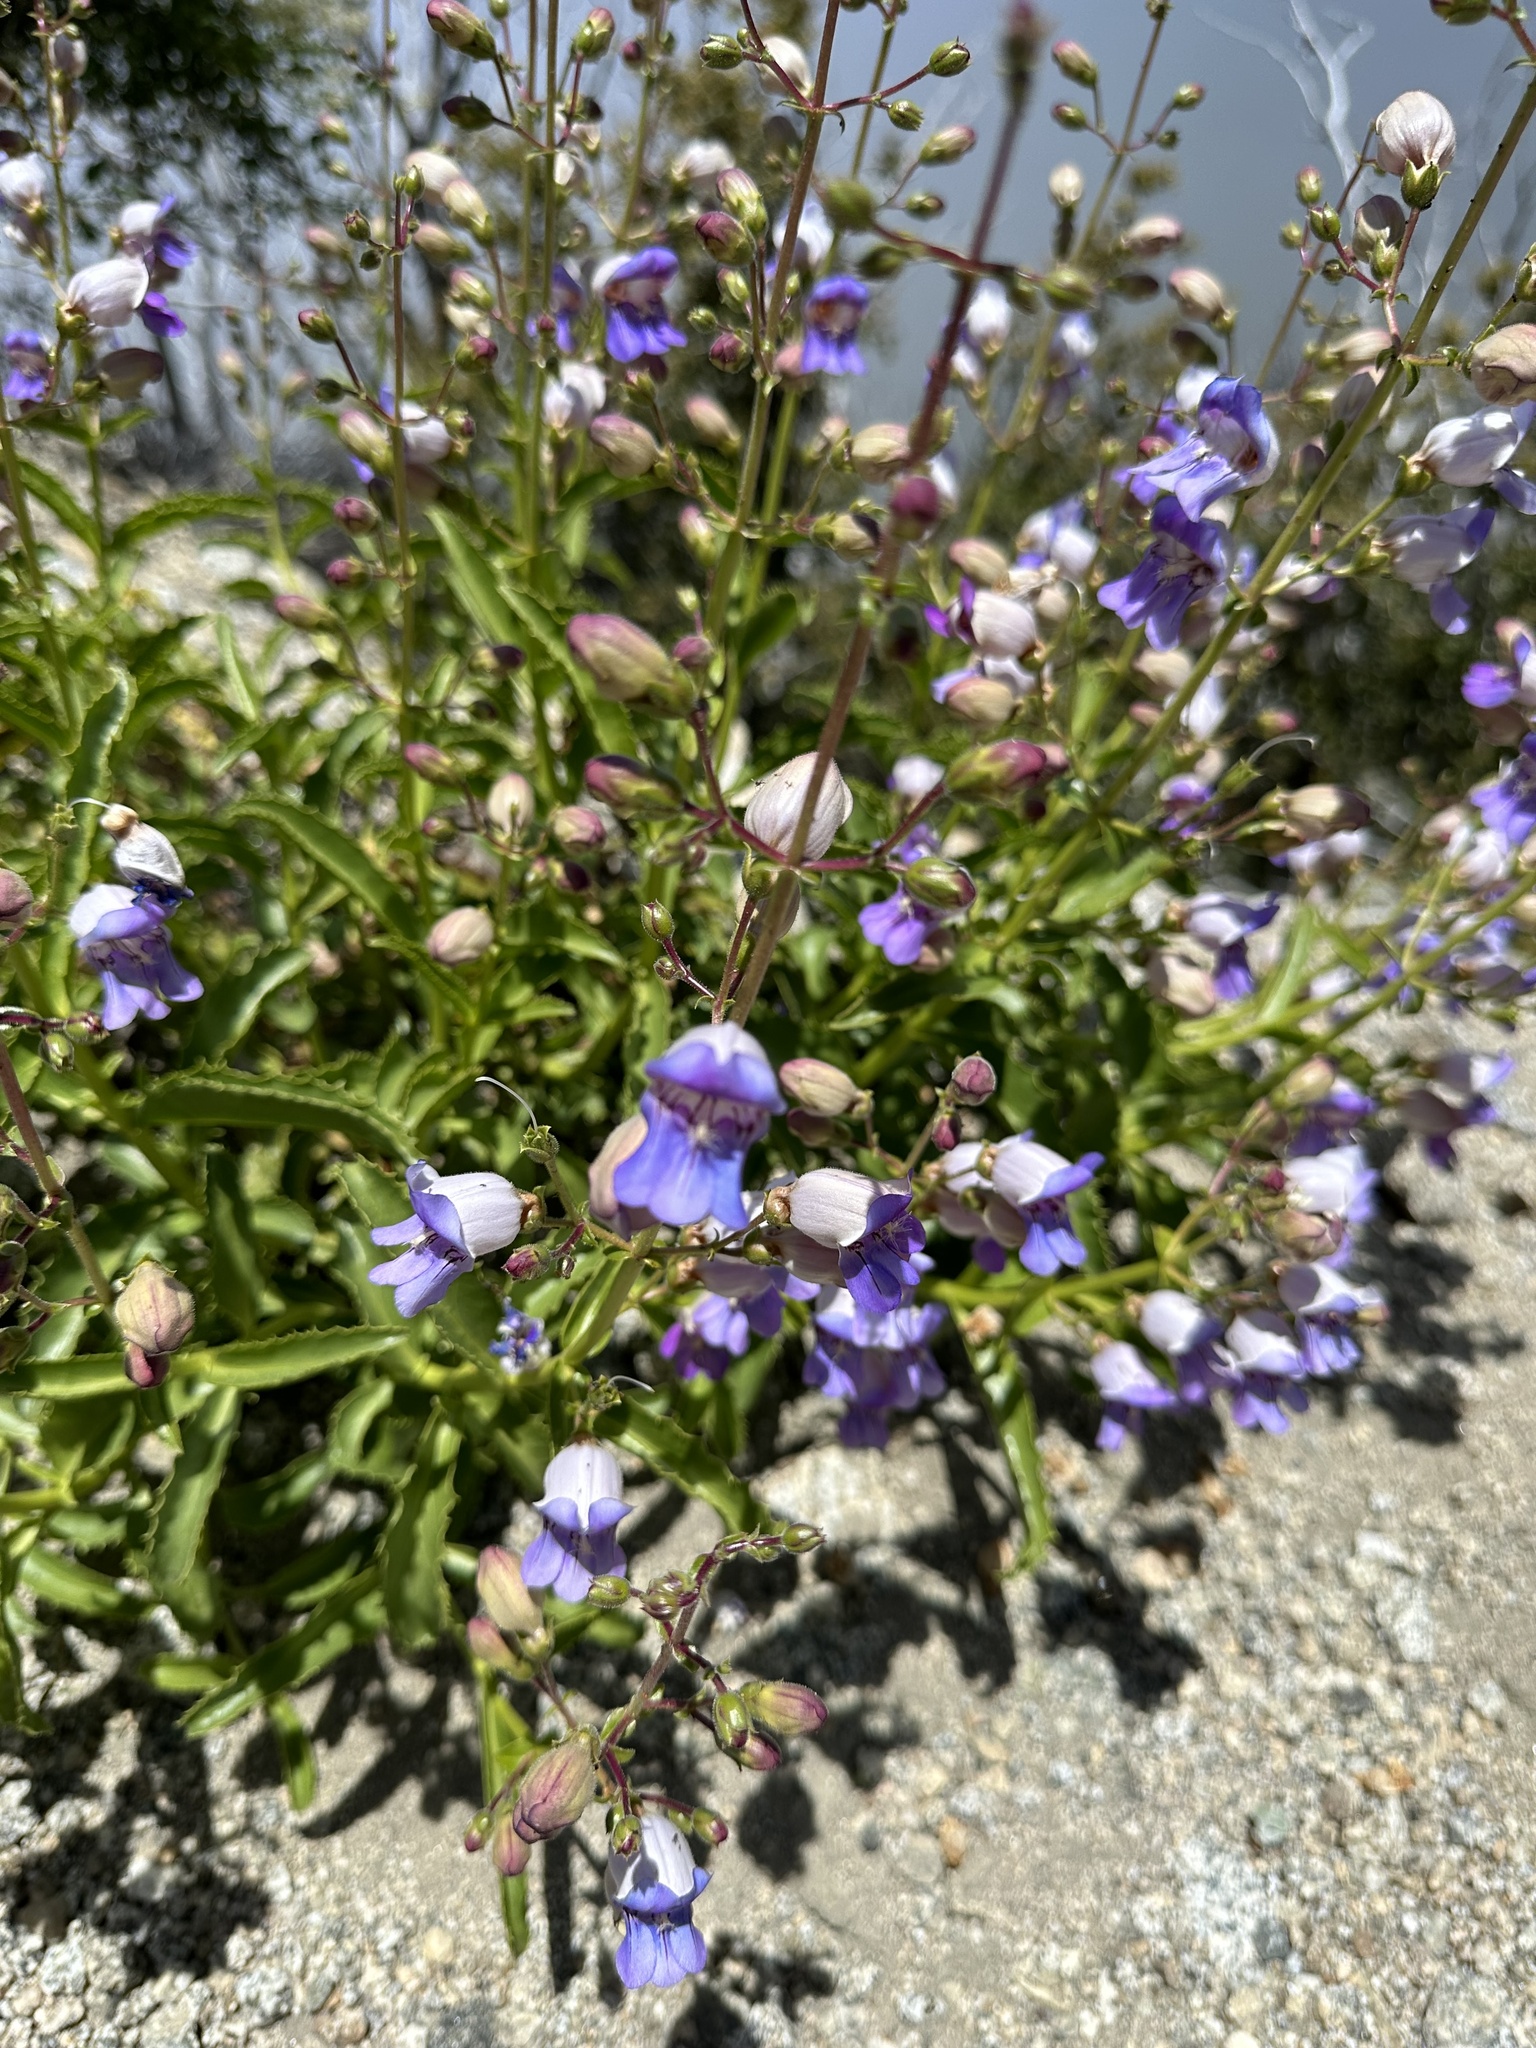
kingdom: Plantae
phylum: Tracheophyta
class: Magnoliopsida
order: Lamiales
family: Plantaginaceae
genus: Penstemon
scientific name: Penstemon grinnellii
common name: Grinnell's beardtongue
